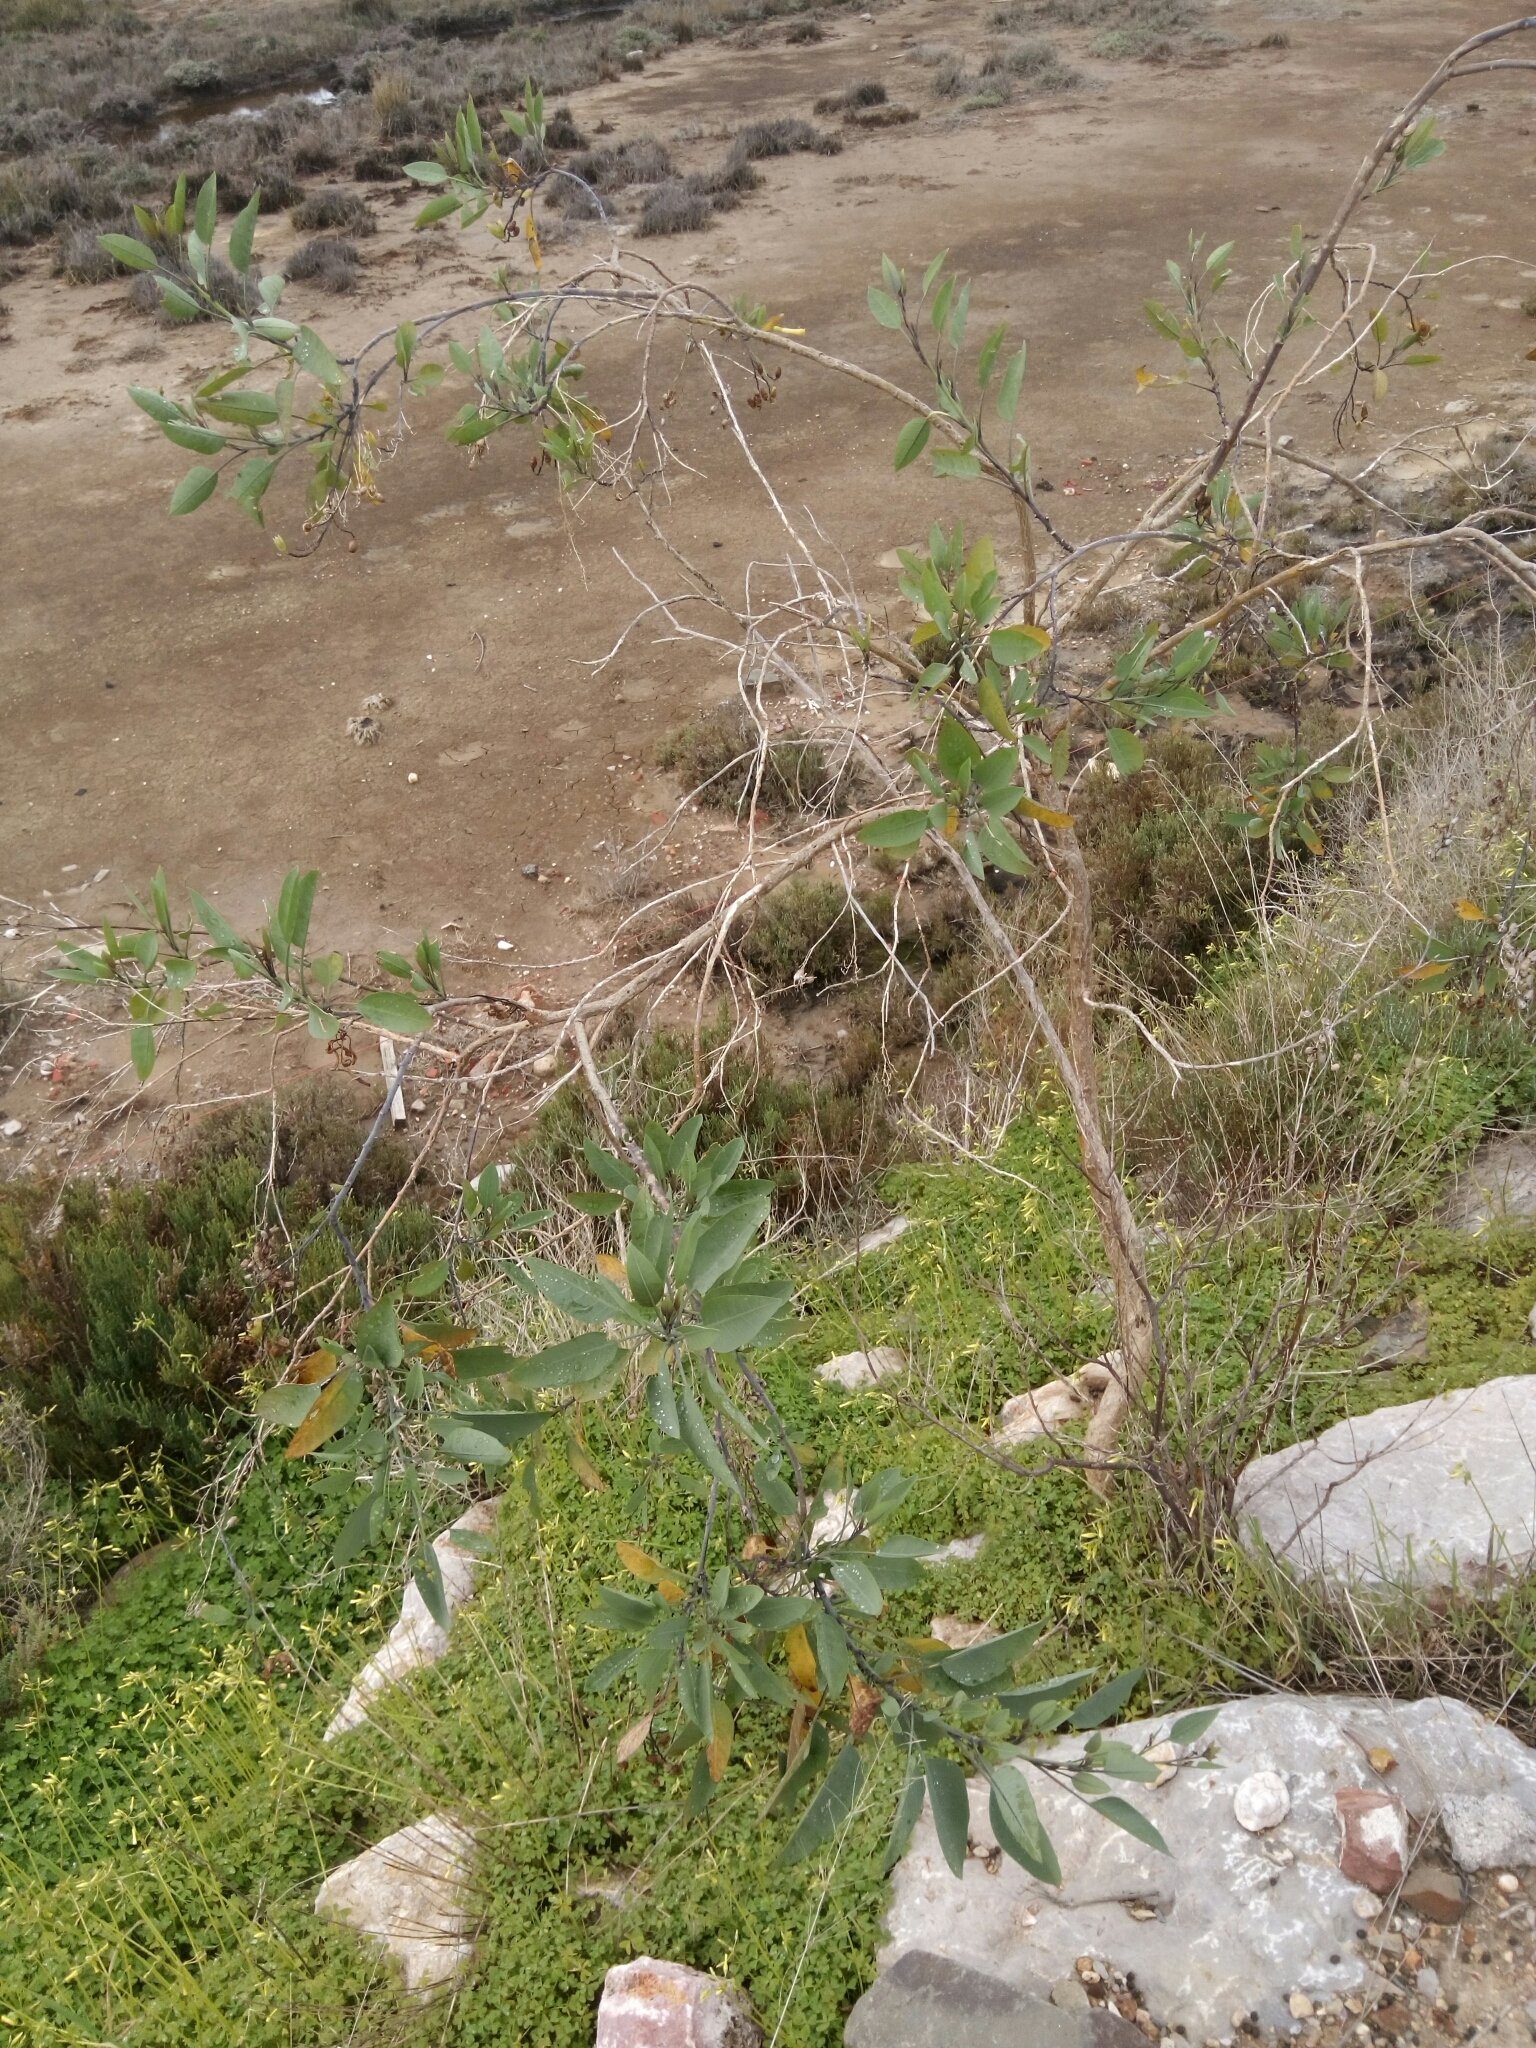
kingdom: Plantae
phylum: Tracheophyta
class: Magnoliopsida
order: Solanales
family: Solanaceae
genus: Nicotiana
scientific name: Nicotiana glauca
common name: Tree tobacco
